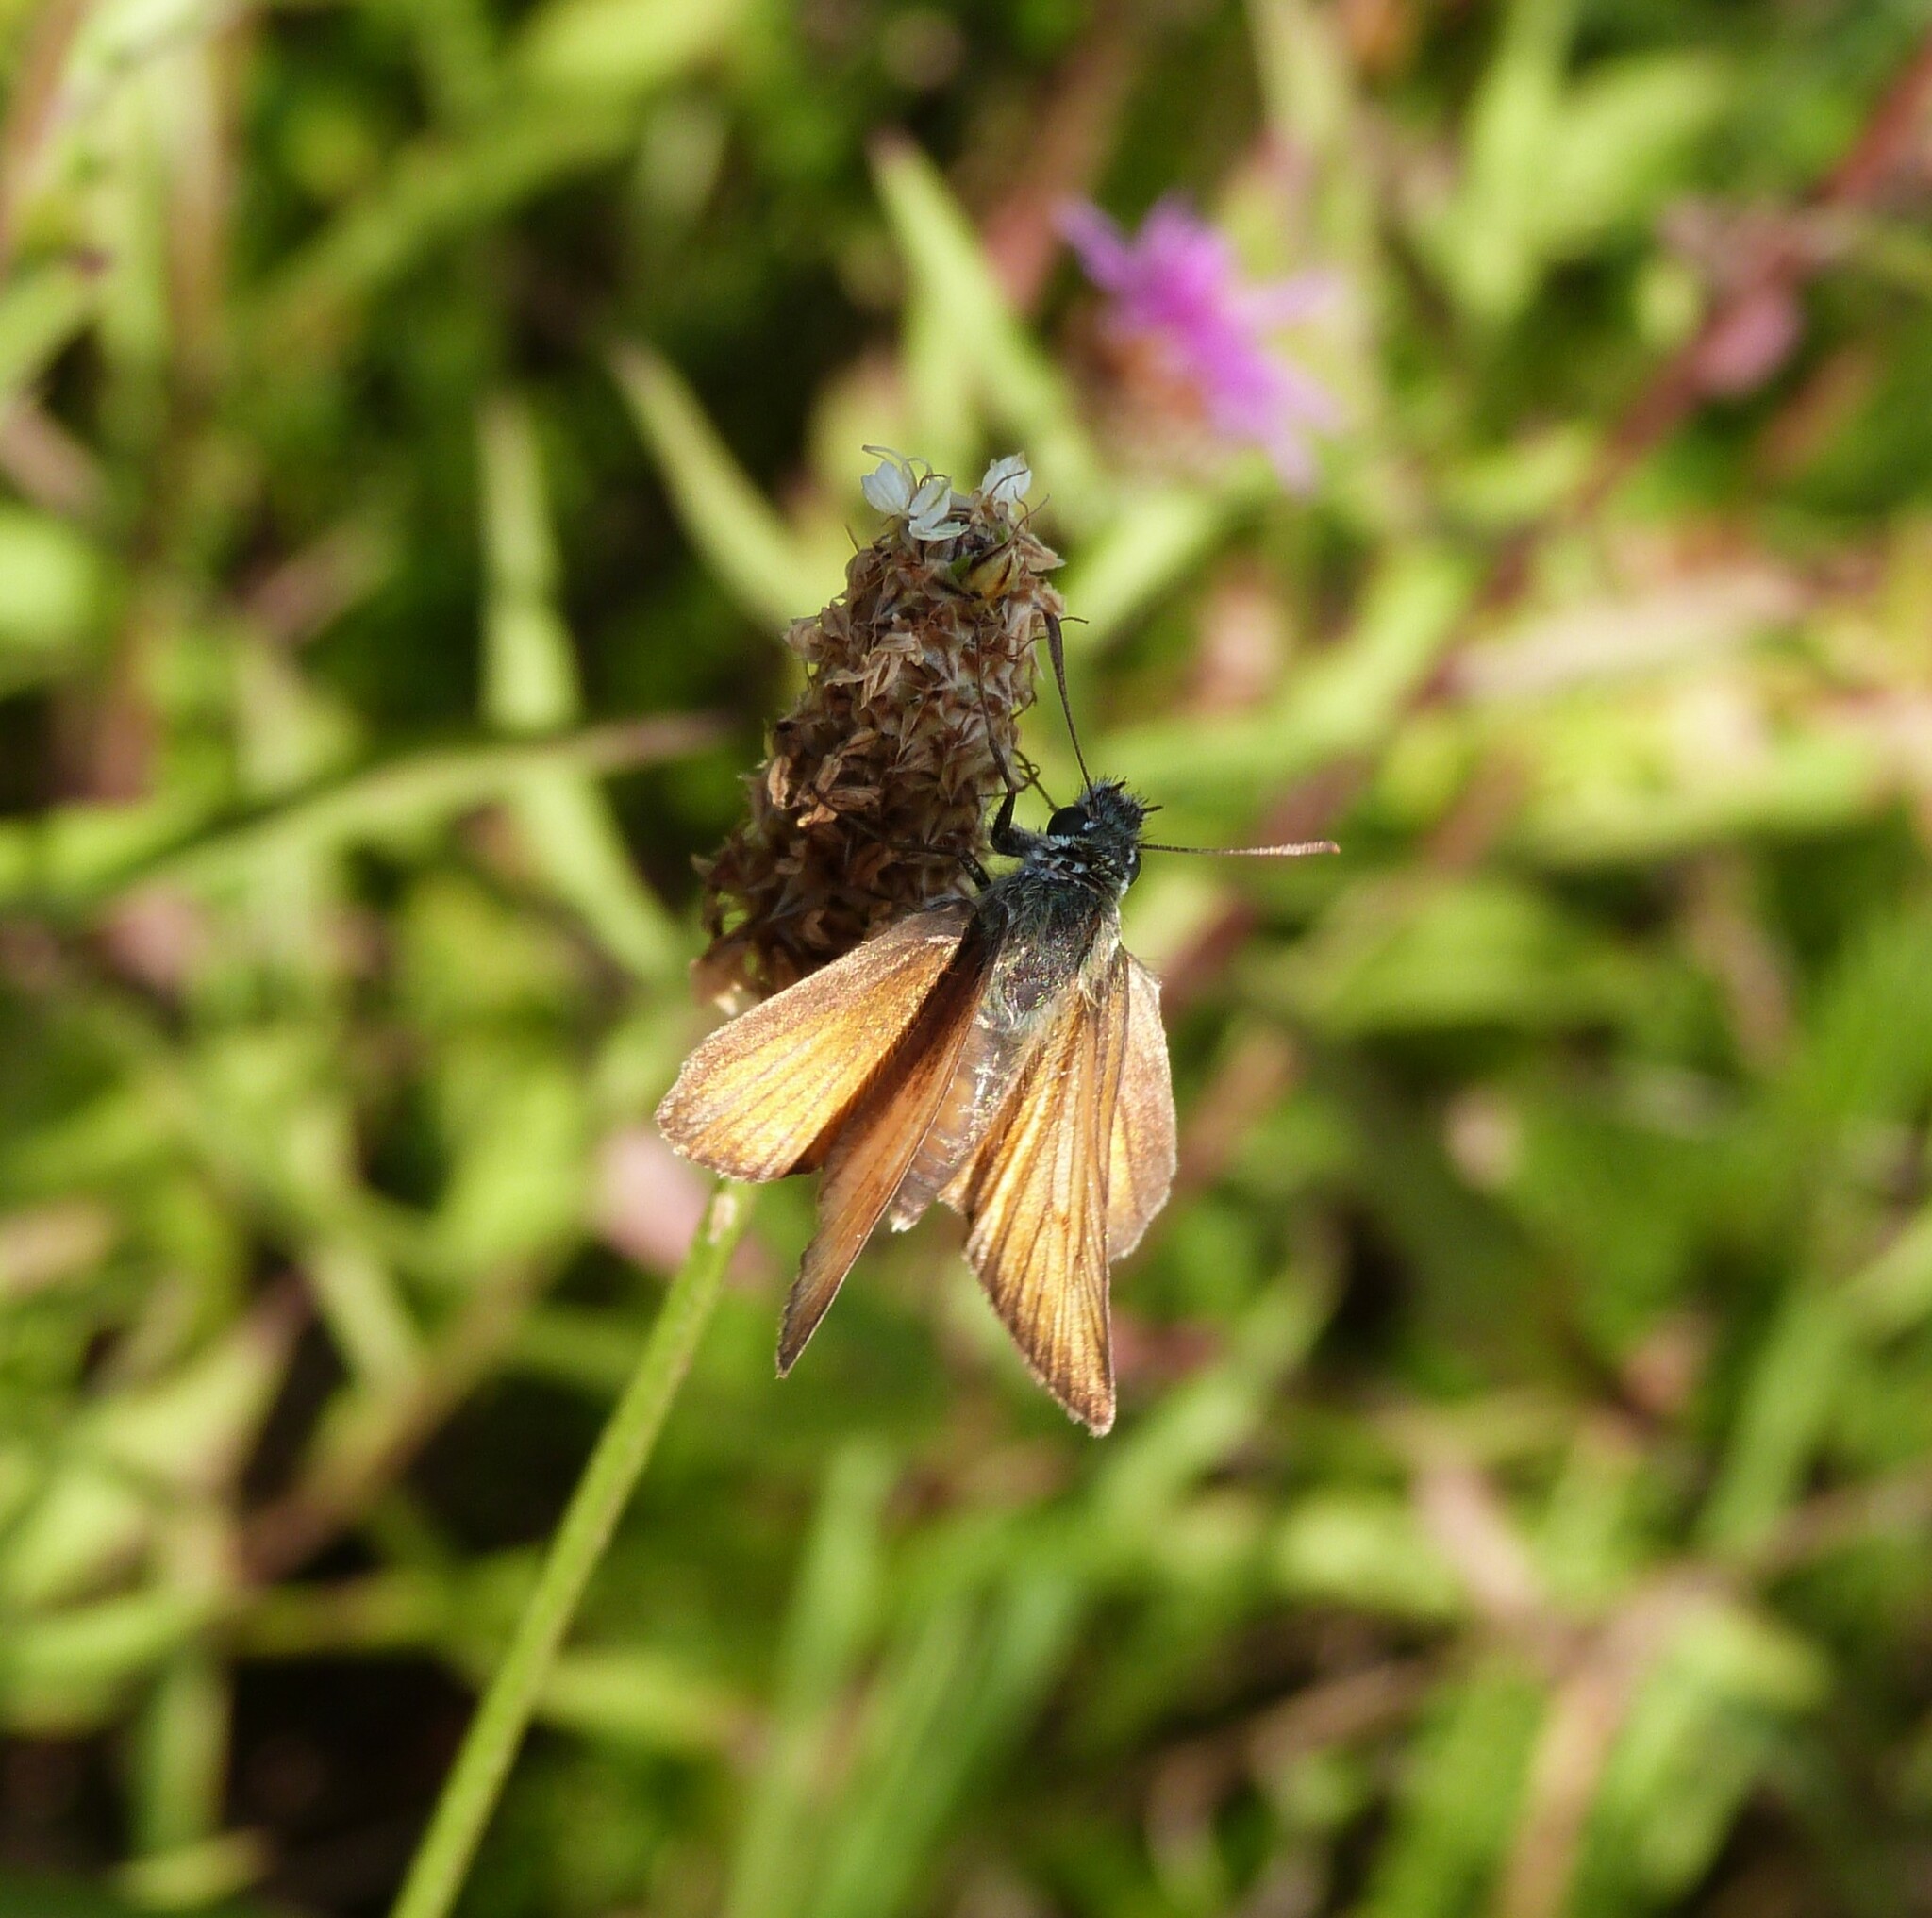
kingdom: Animalia
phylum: Arthropoda
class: Insecta
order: Lepidoptera
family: Hesperiidae
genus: Thymelicus
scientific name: Thymelicus sylvestris
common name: Small skipper
